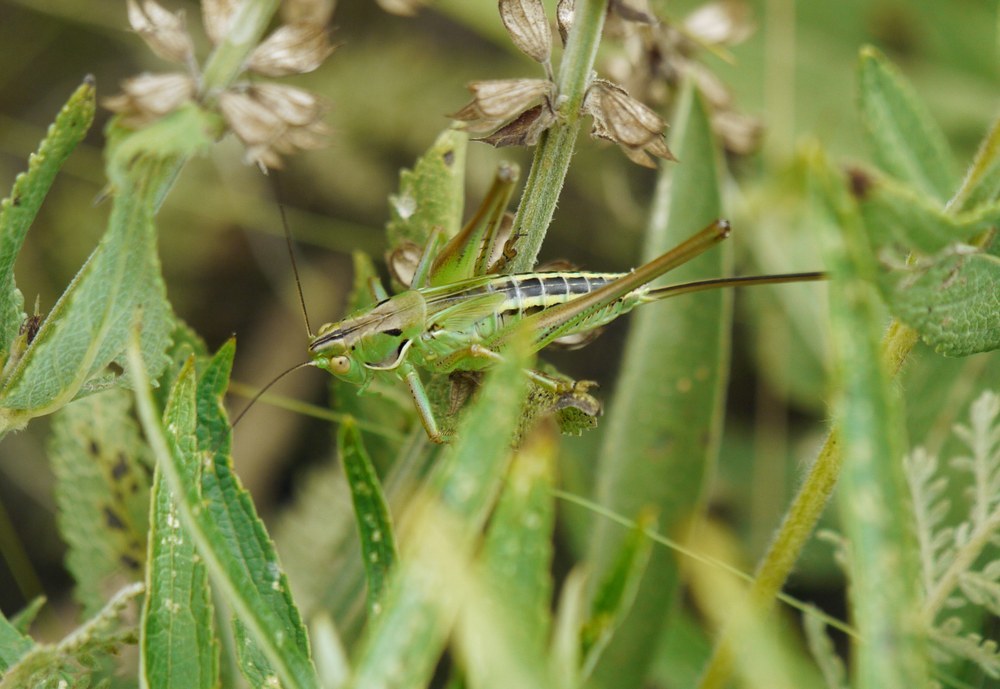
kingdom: Animalia
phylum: Arthropoda
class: Insecta
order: Orthoptera
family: Tettigoniidae
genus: Gampsocleis
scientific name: Gampsocleis glabra
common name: Heath bushcricket
